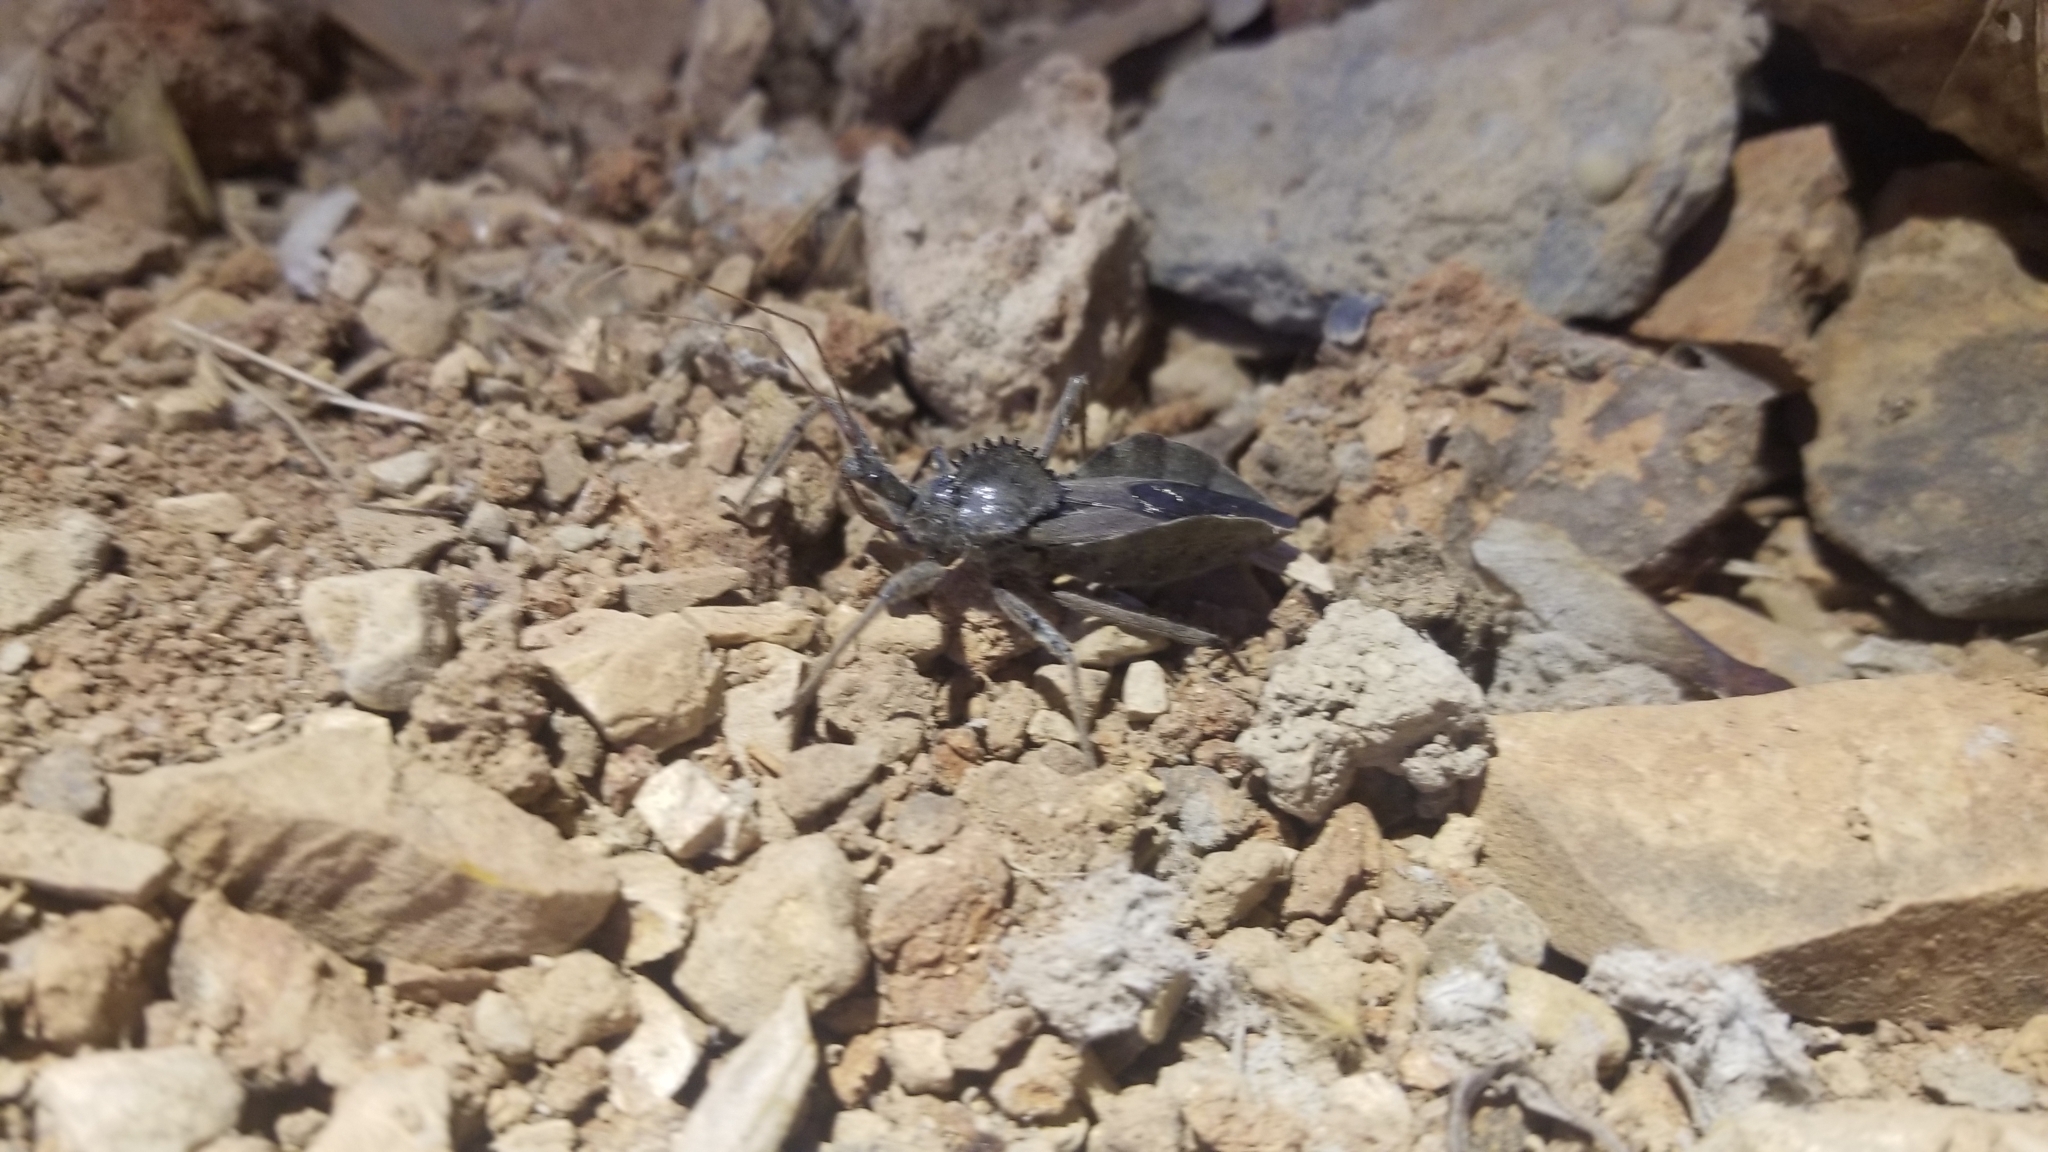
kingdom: Animalia
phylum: Arthropoda
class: Insecta
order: Hemiptera
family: Reduviidae
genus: Arilus
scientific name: Arilus cristatus
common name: North american wheel bug
